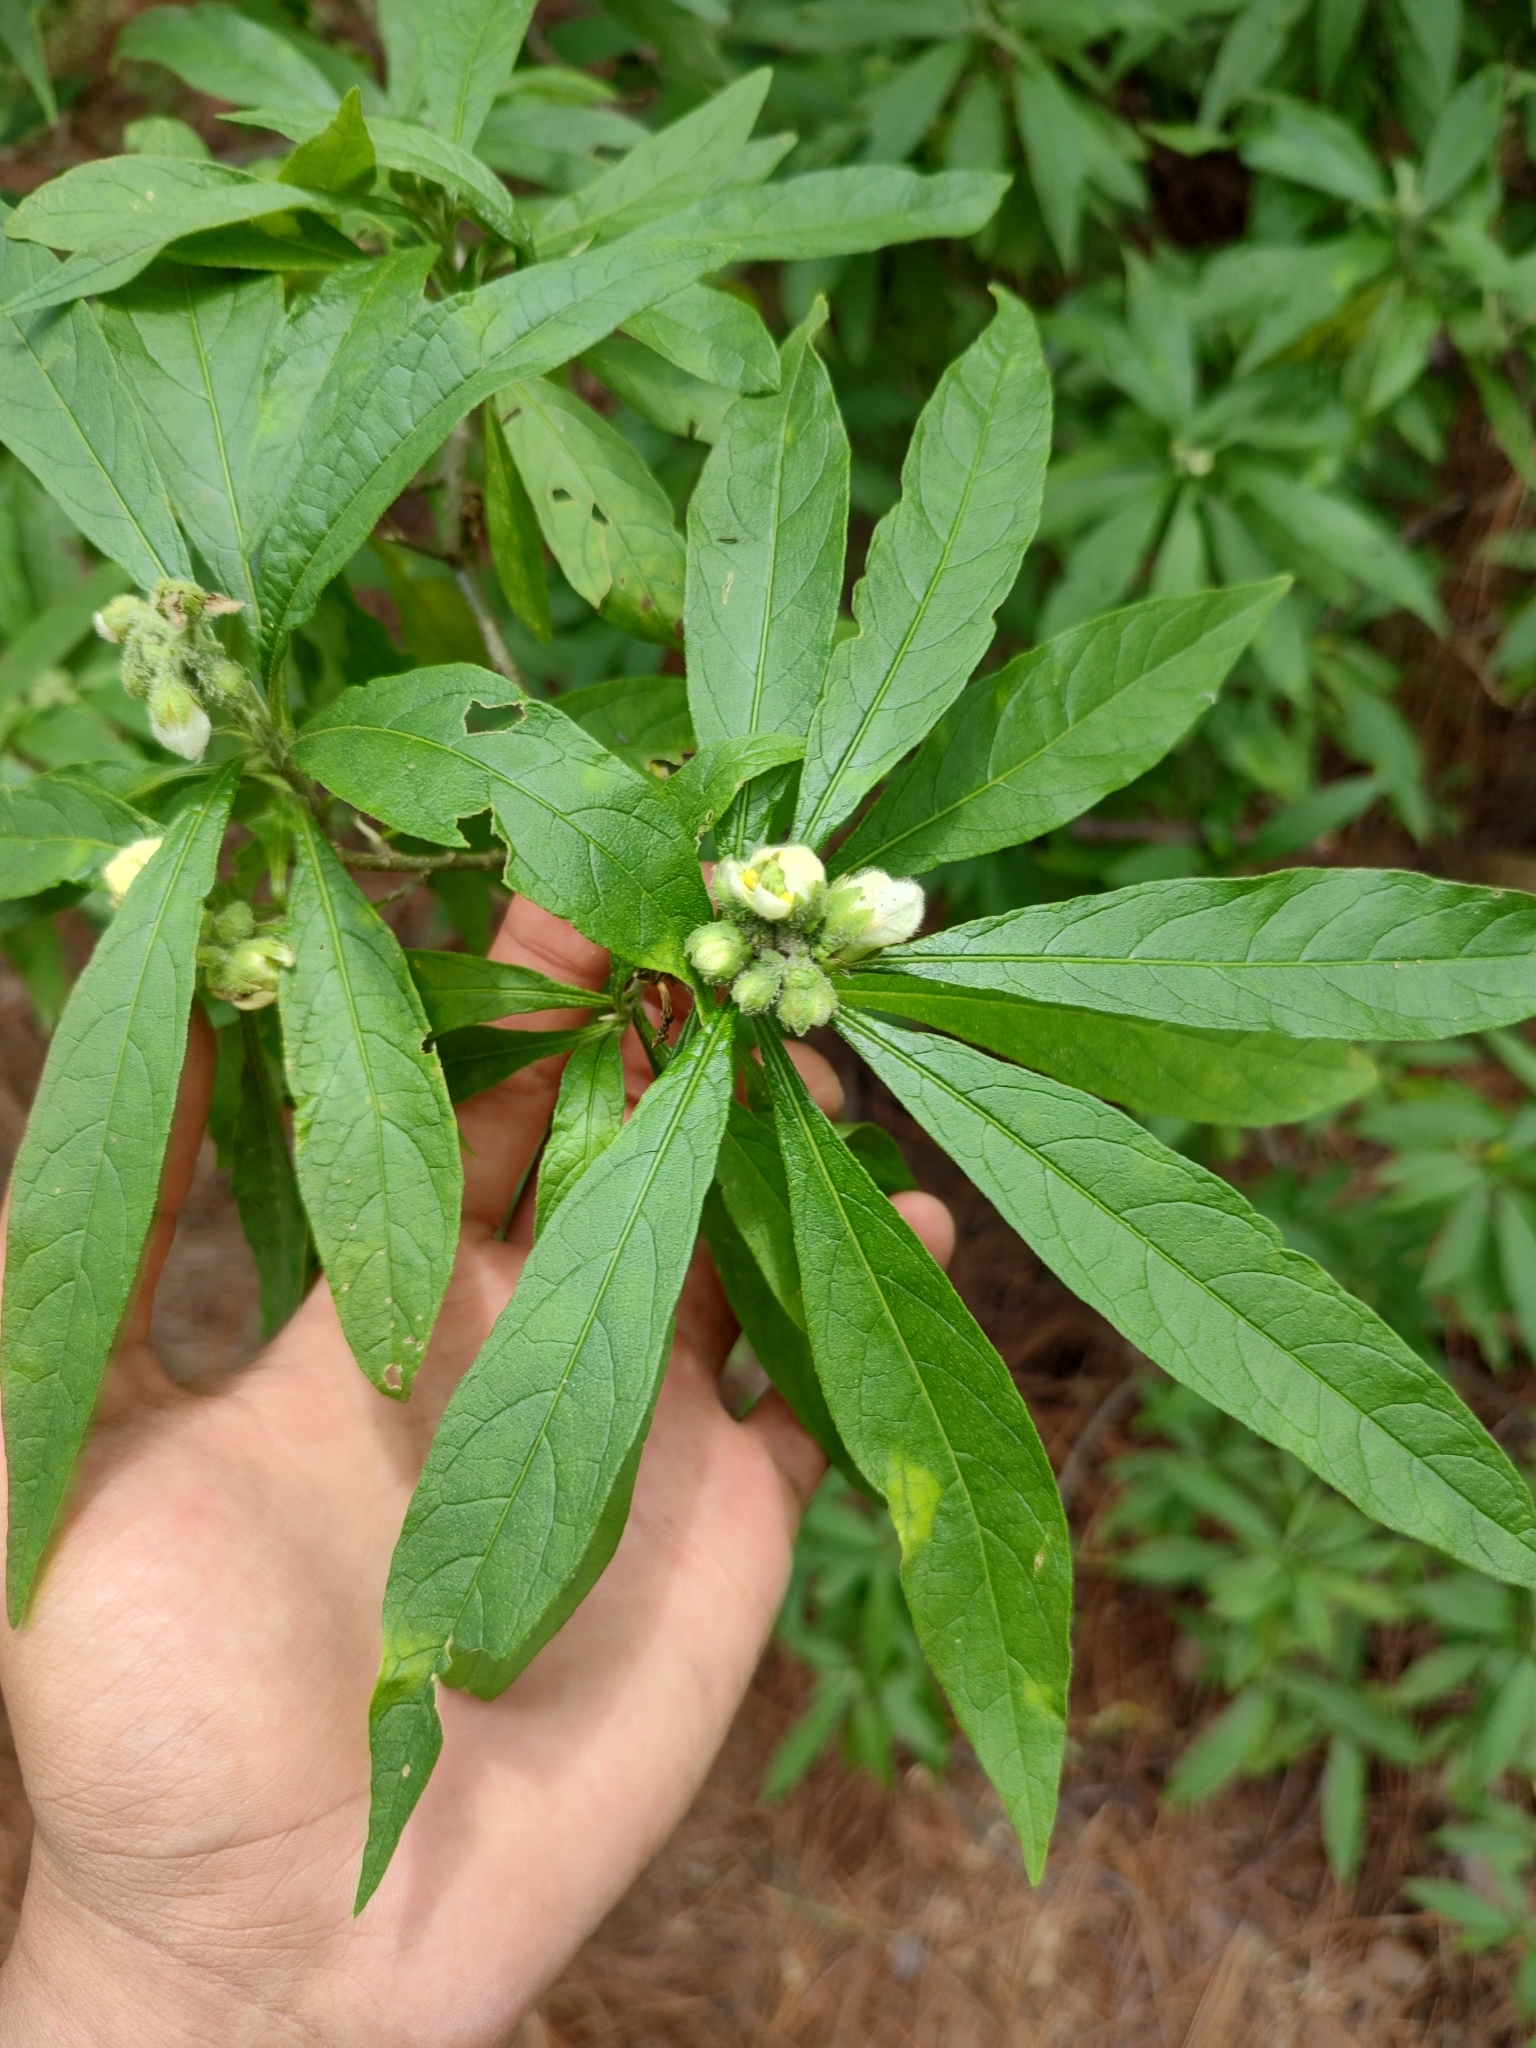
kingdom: Plantae
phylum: Tracheophyta
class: Magnoliopsida
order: Solanales
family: Solanaceae
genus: Solanum
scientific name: Solanum umbellatum
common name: Nightshade
